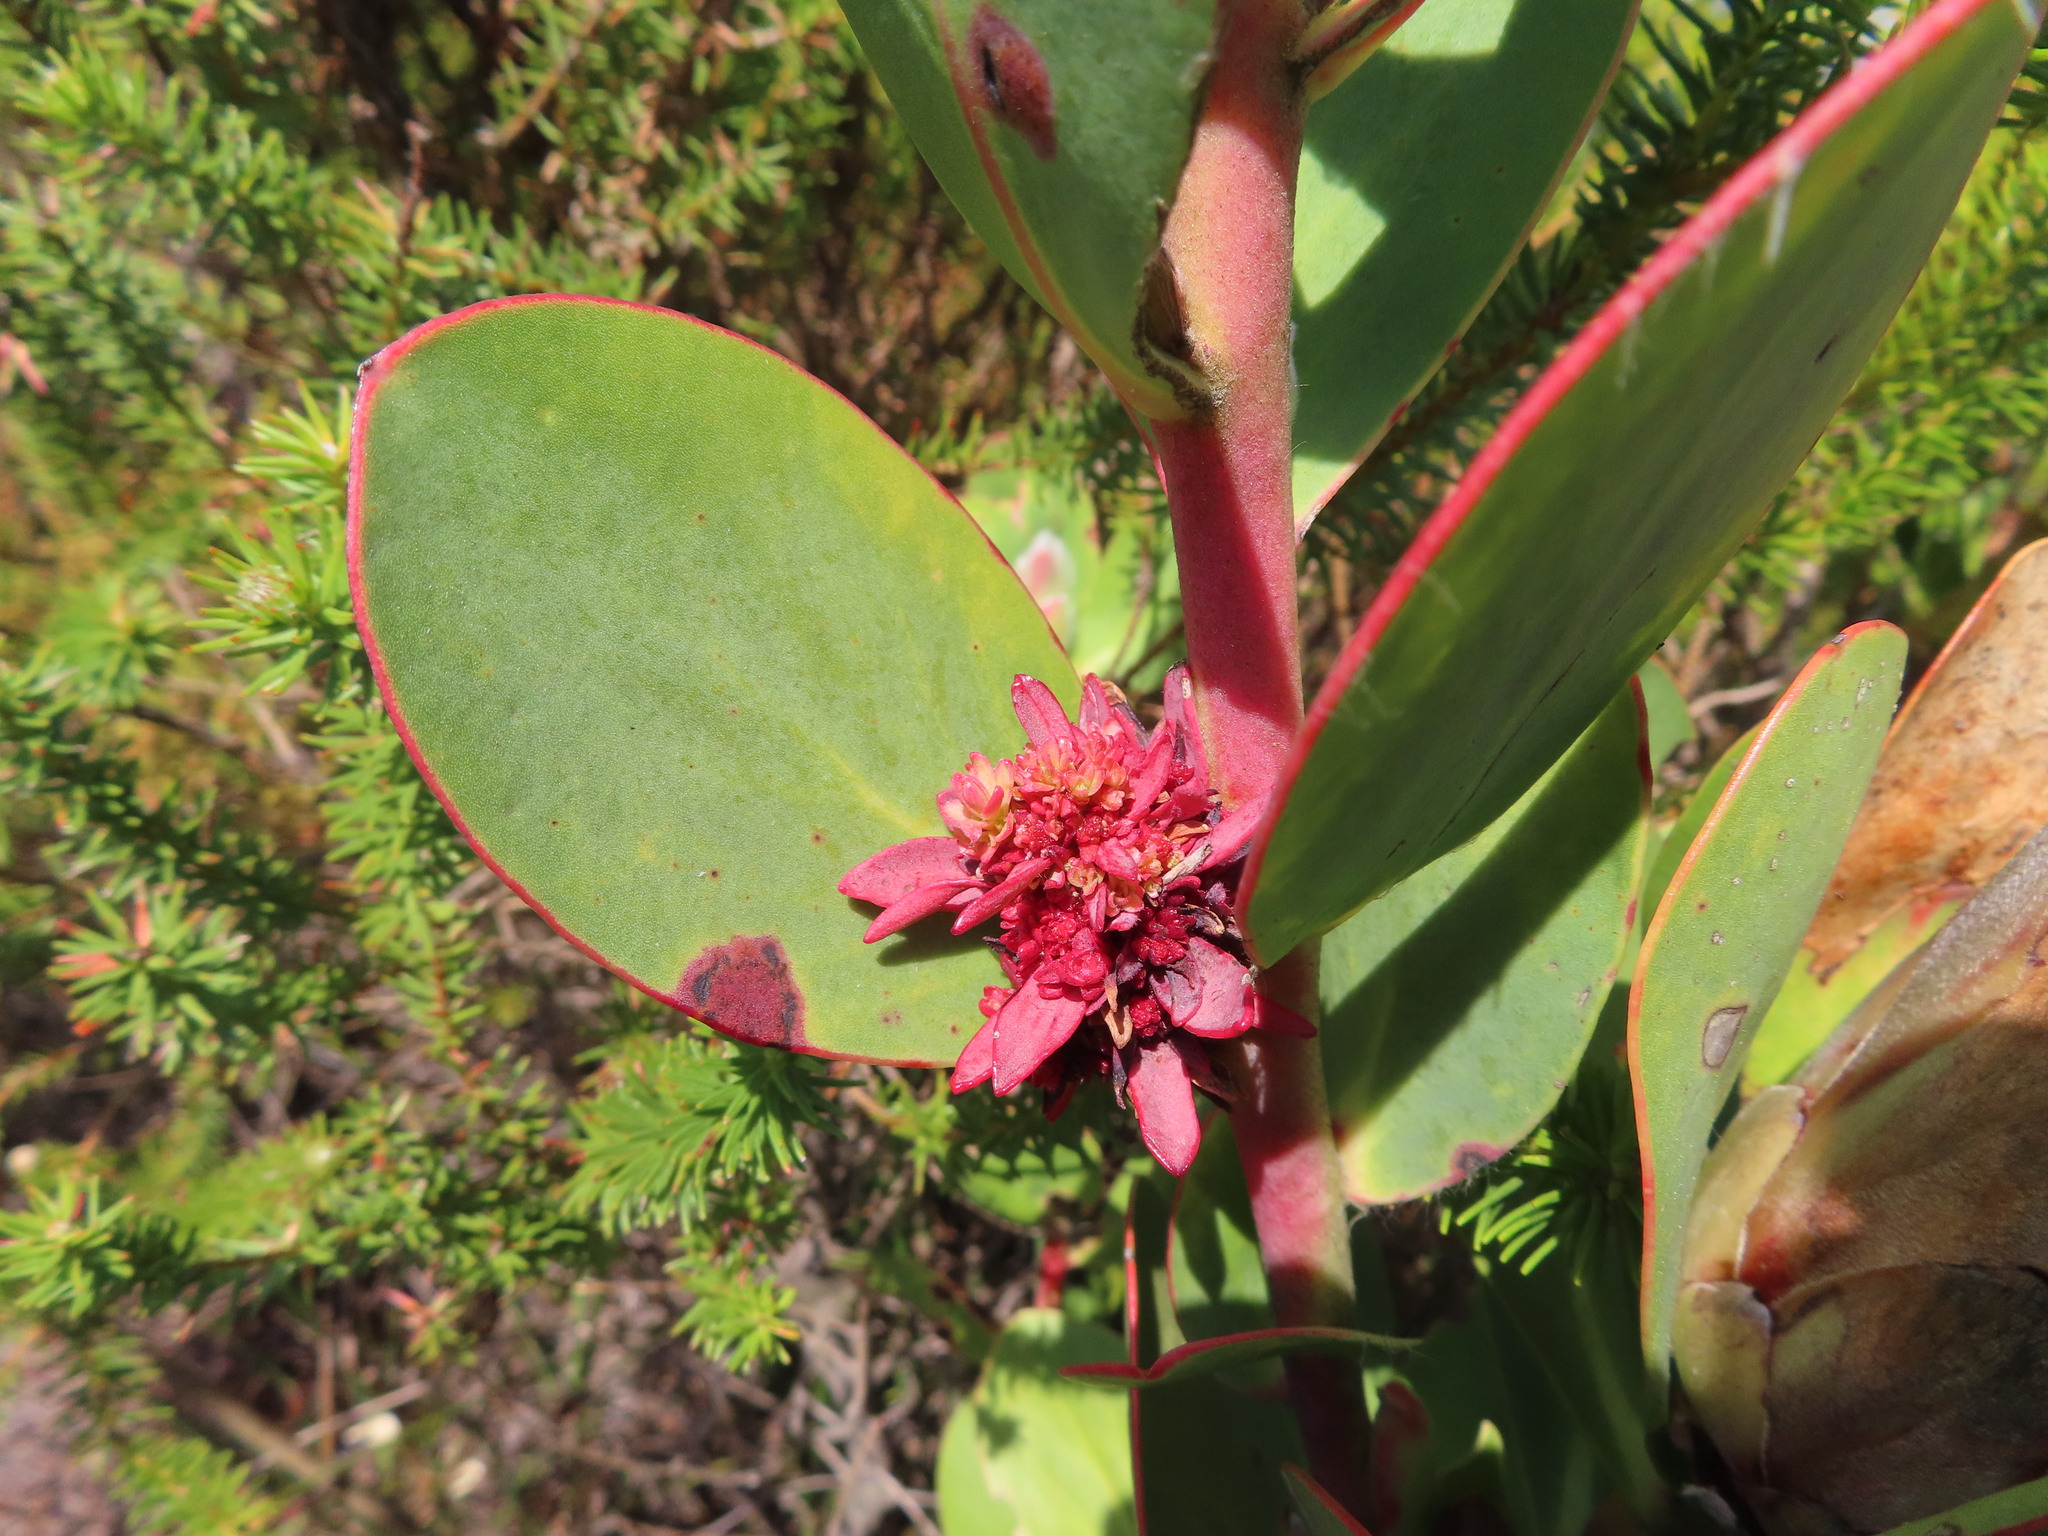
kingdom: Bacteria
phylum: Firmicutes
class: Bacilli
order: Acholeplasmatales
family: Acholeplasmataceae
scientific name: Acholeplasmataceae
